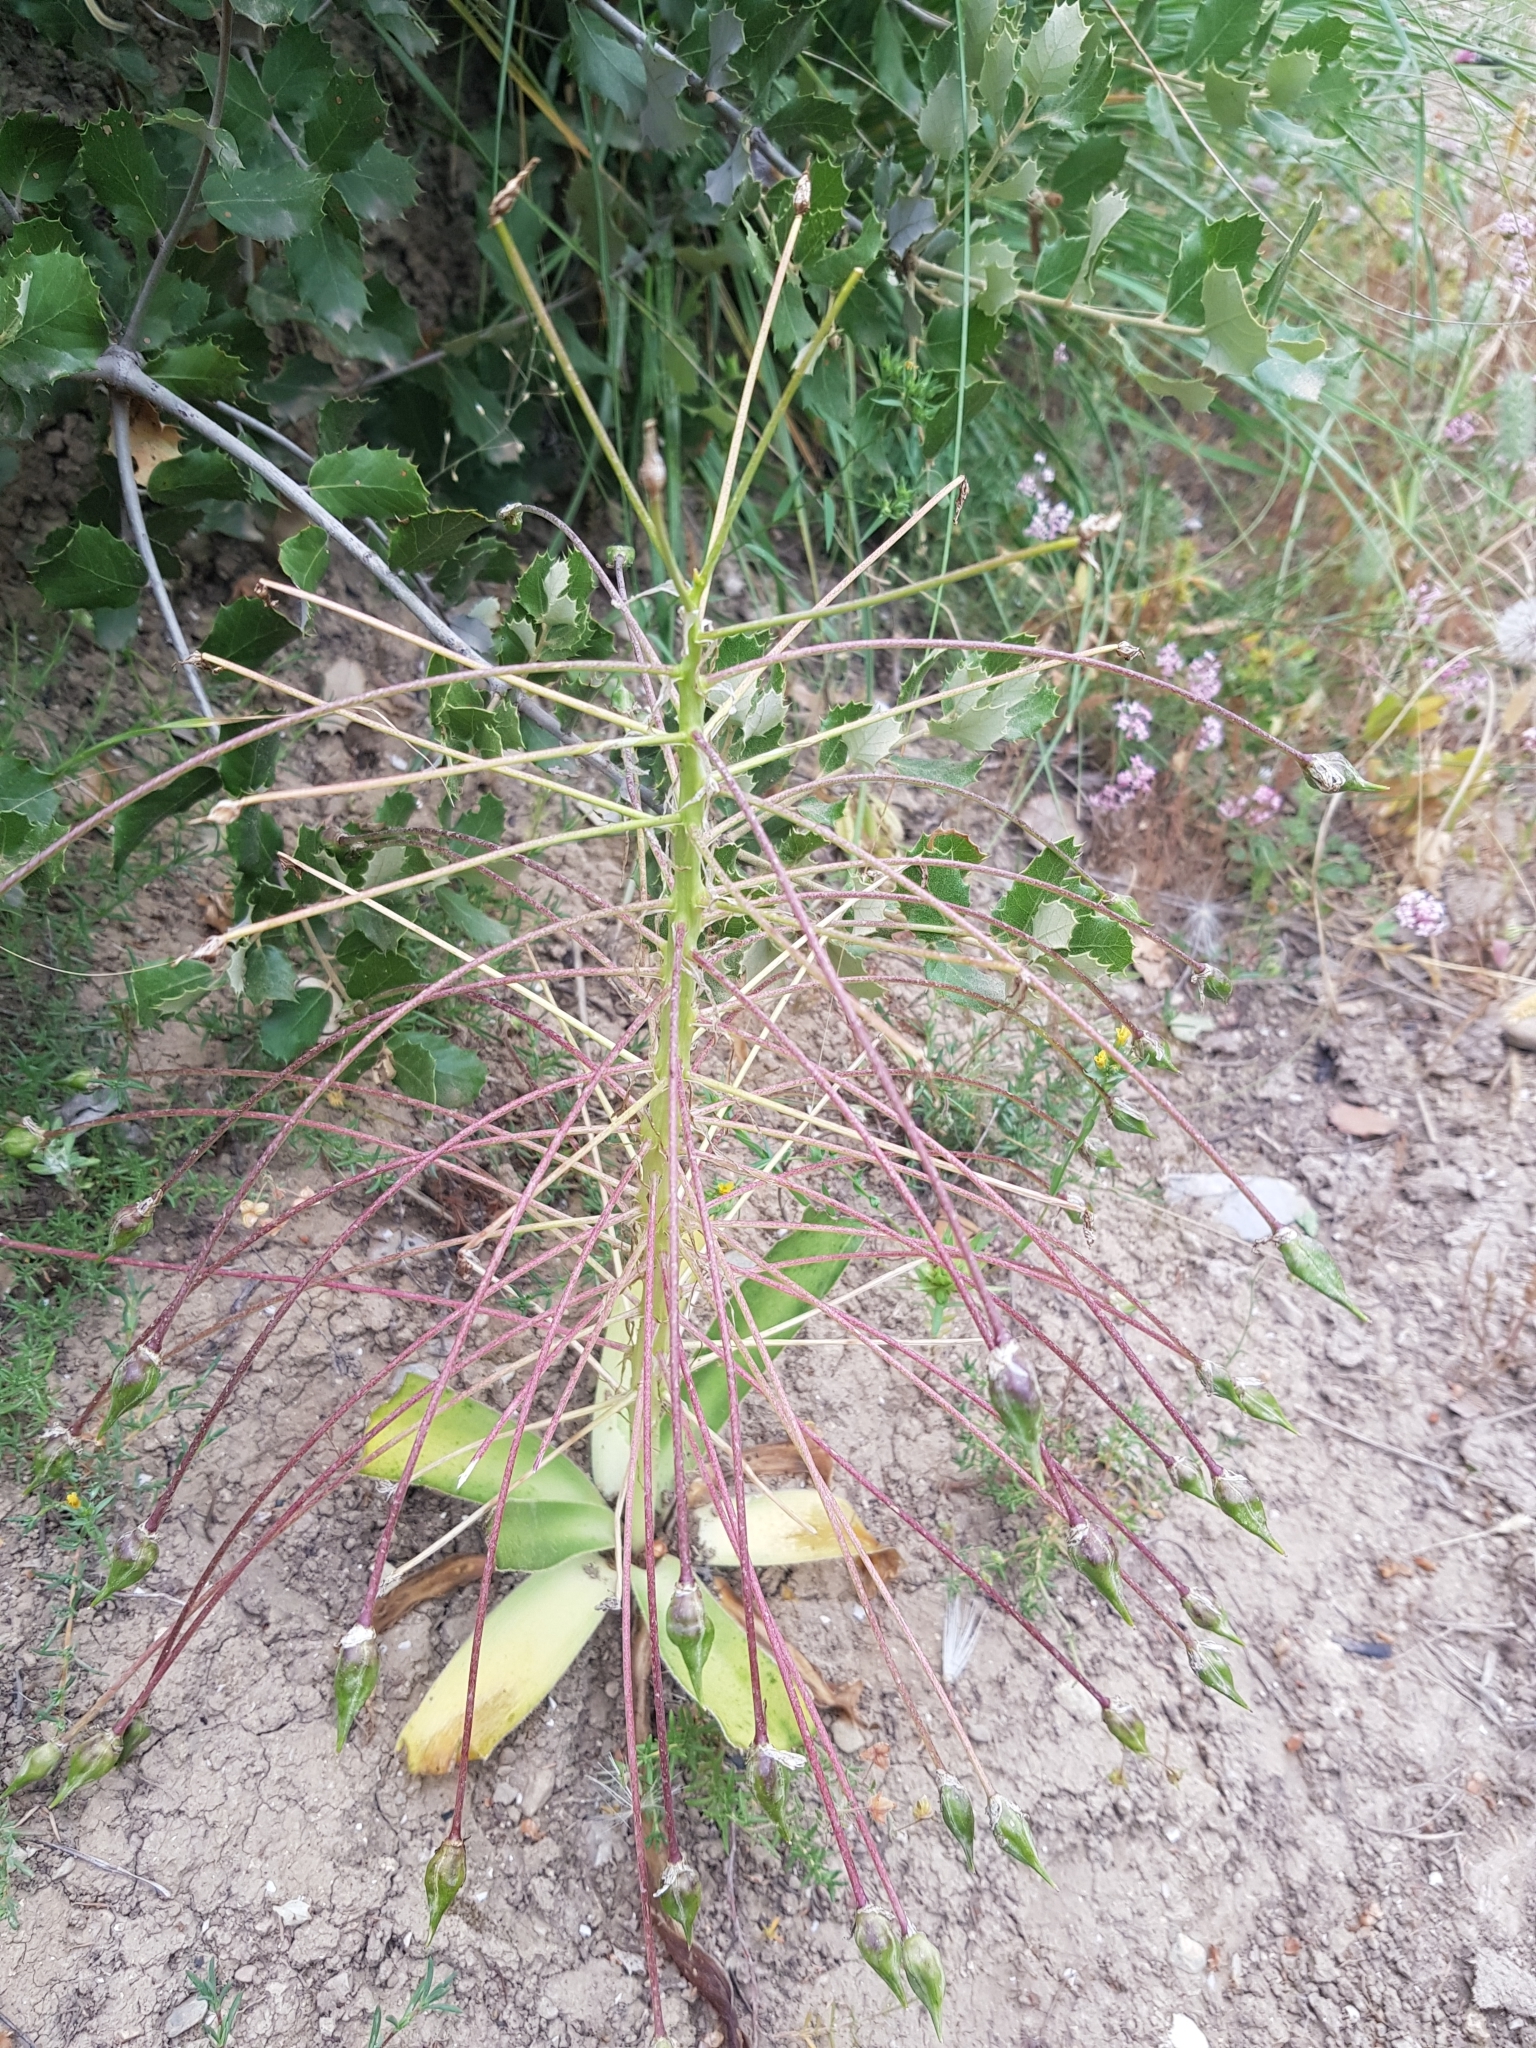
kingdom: Plantae
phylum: Tracheophyta
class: Liliopsida
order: Asparagales
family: Asparagaceae
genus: Scilla
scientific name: Scilla peruviana
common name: Portuguese squill
